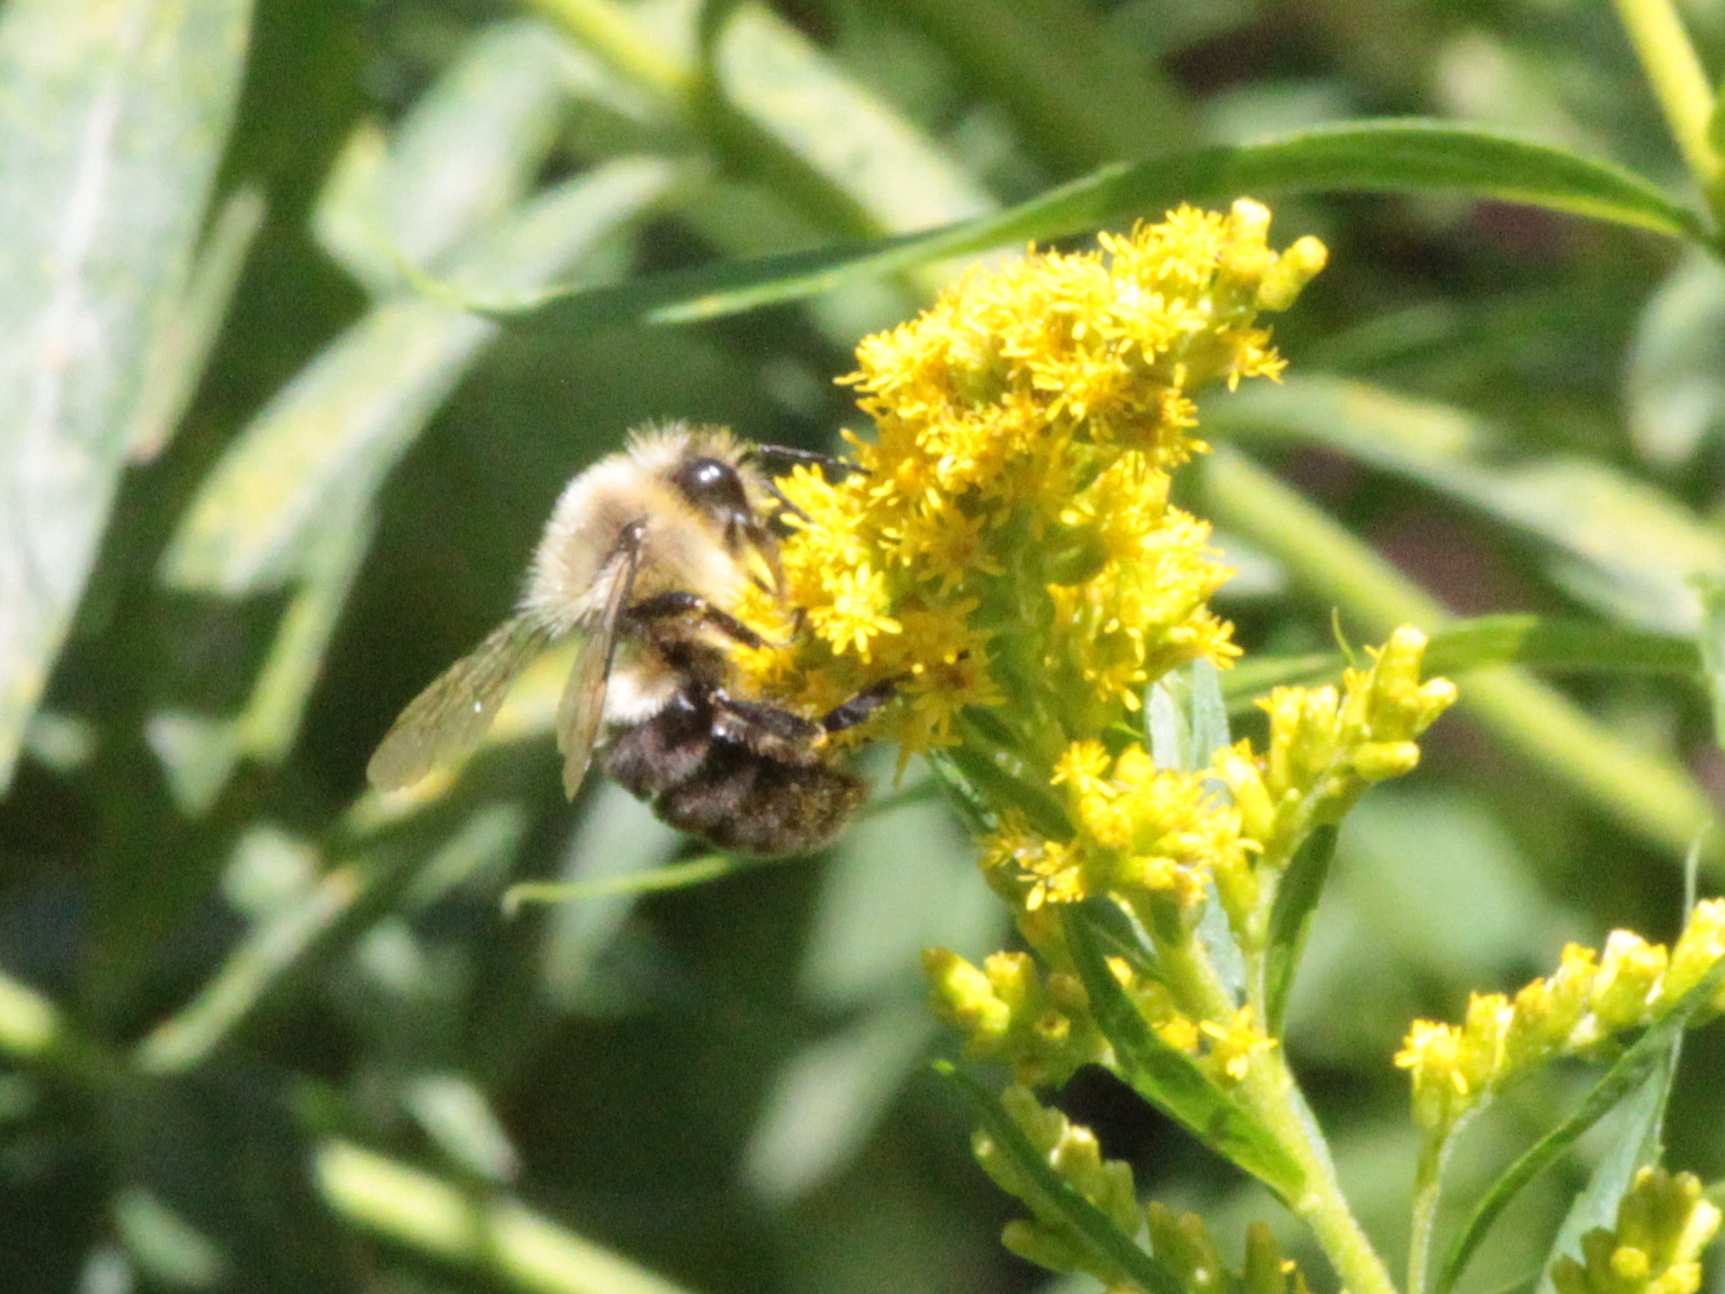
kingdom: Animalia
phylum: Arthropoda
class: Insecta
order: Hymenoptera
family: Apidae
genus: Bombus
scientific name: Bombus impatiens
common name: Common eastern bumble bee
